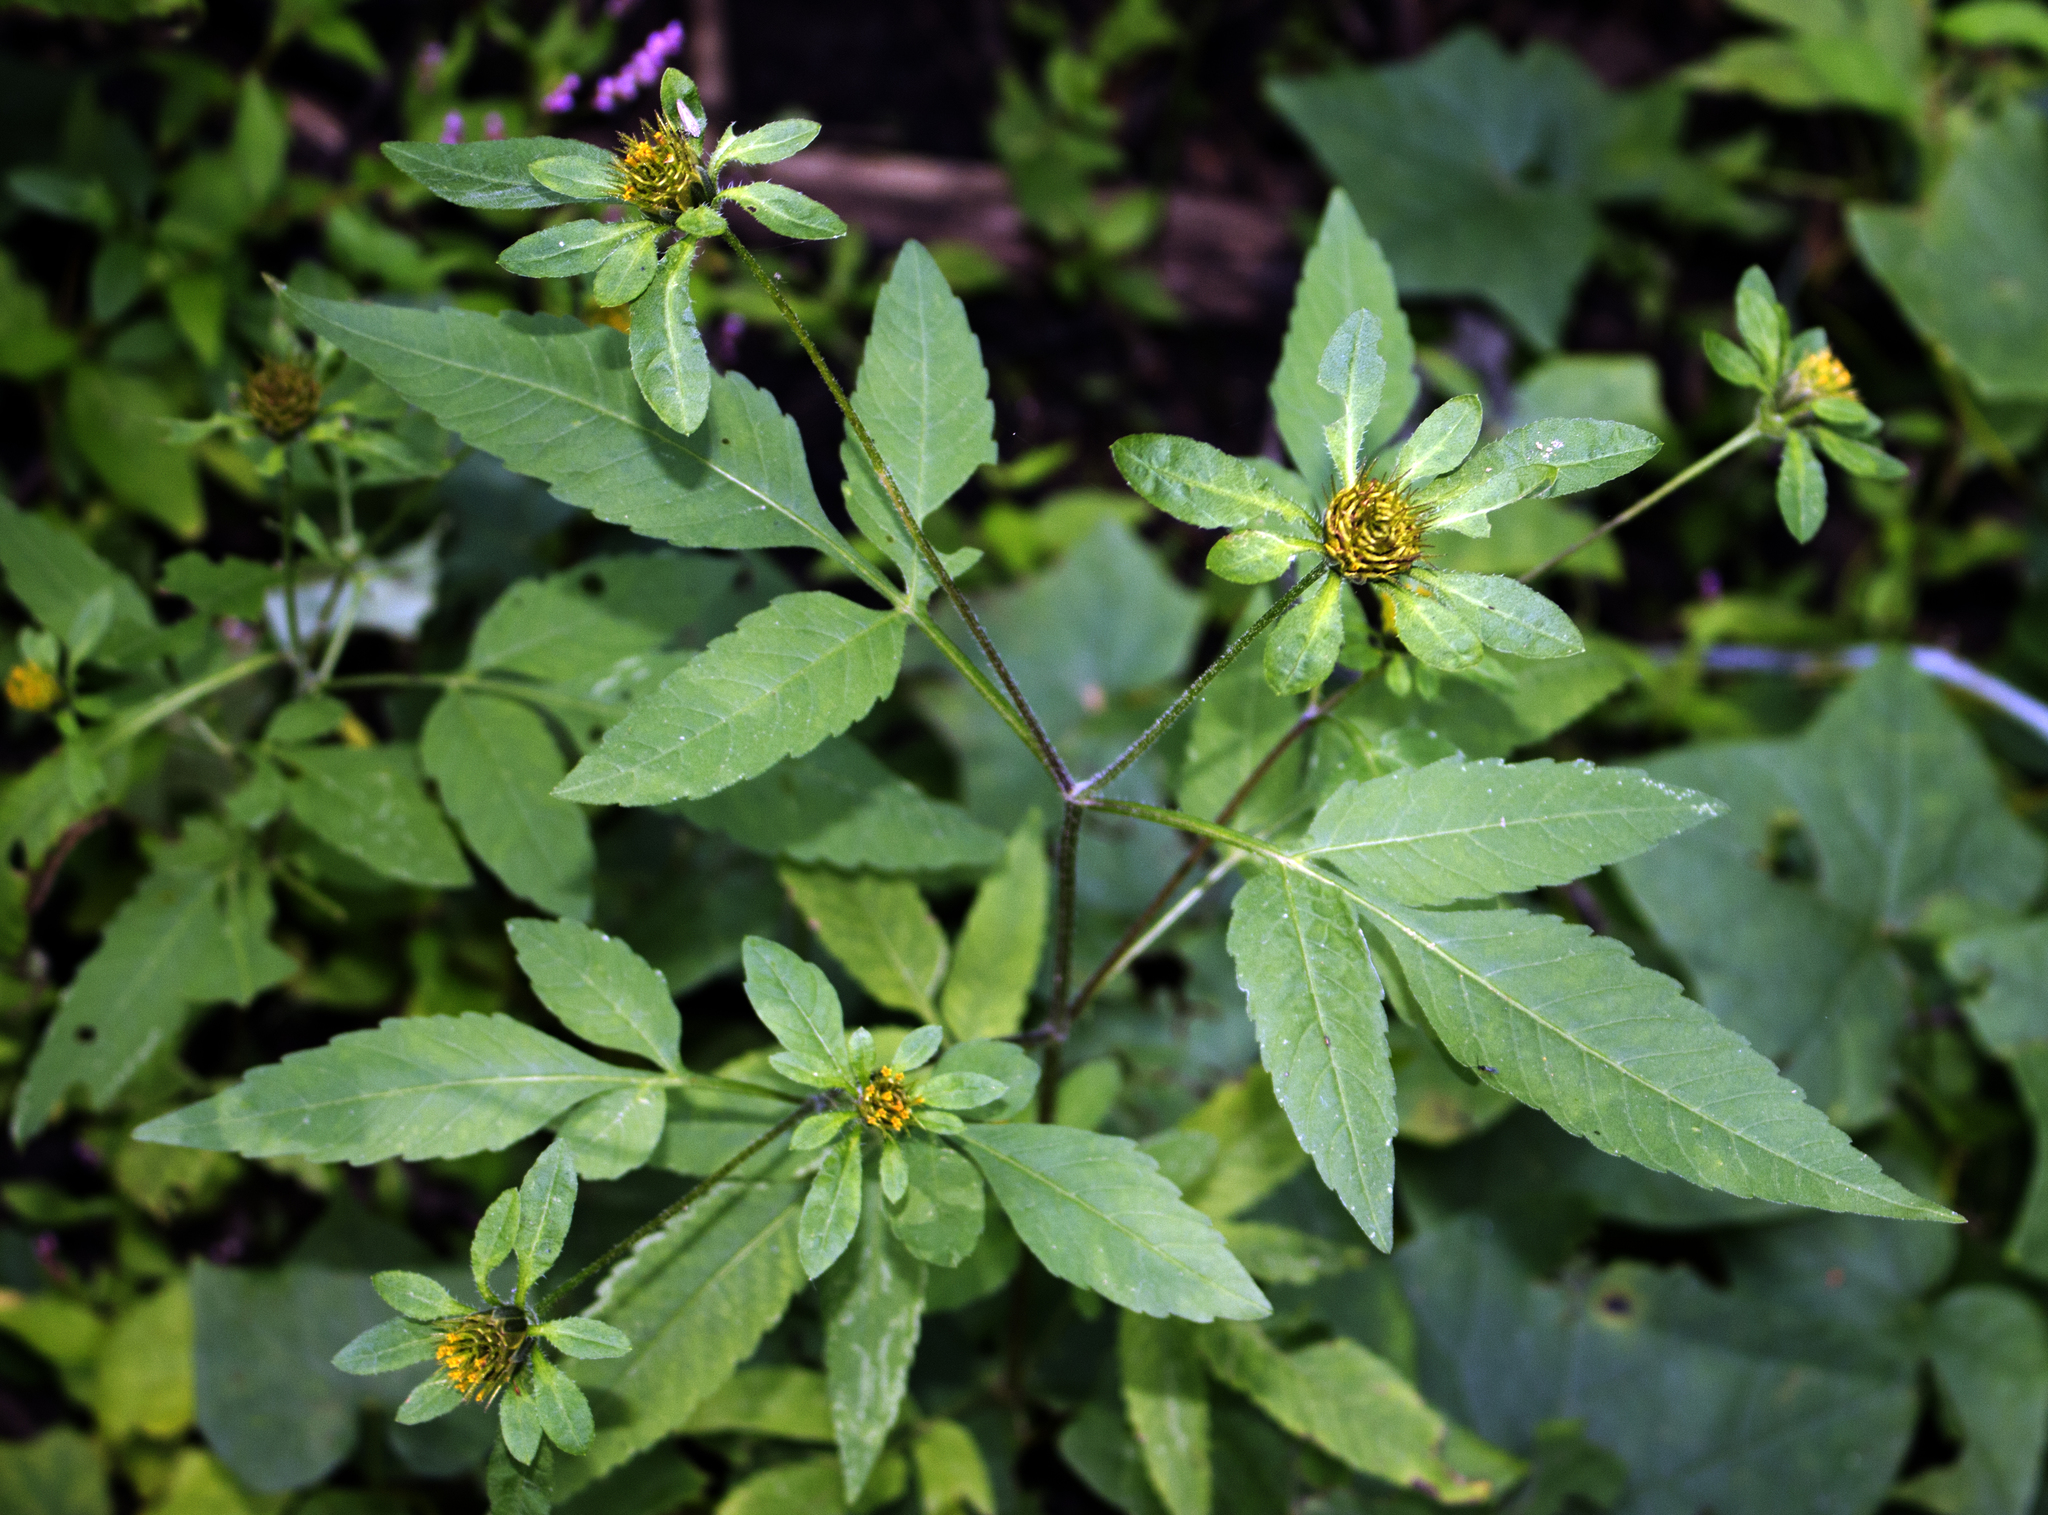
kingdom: Plantae
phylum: Tracheophyta
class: Magnoliopsida
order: Asterales
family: Asteraceae
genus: Bidens
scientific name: Bidens frondosa
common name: Beggarticks
